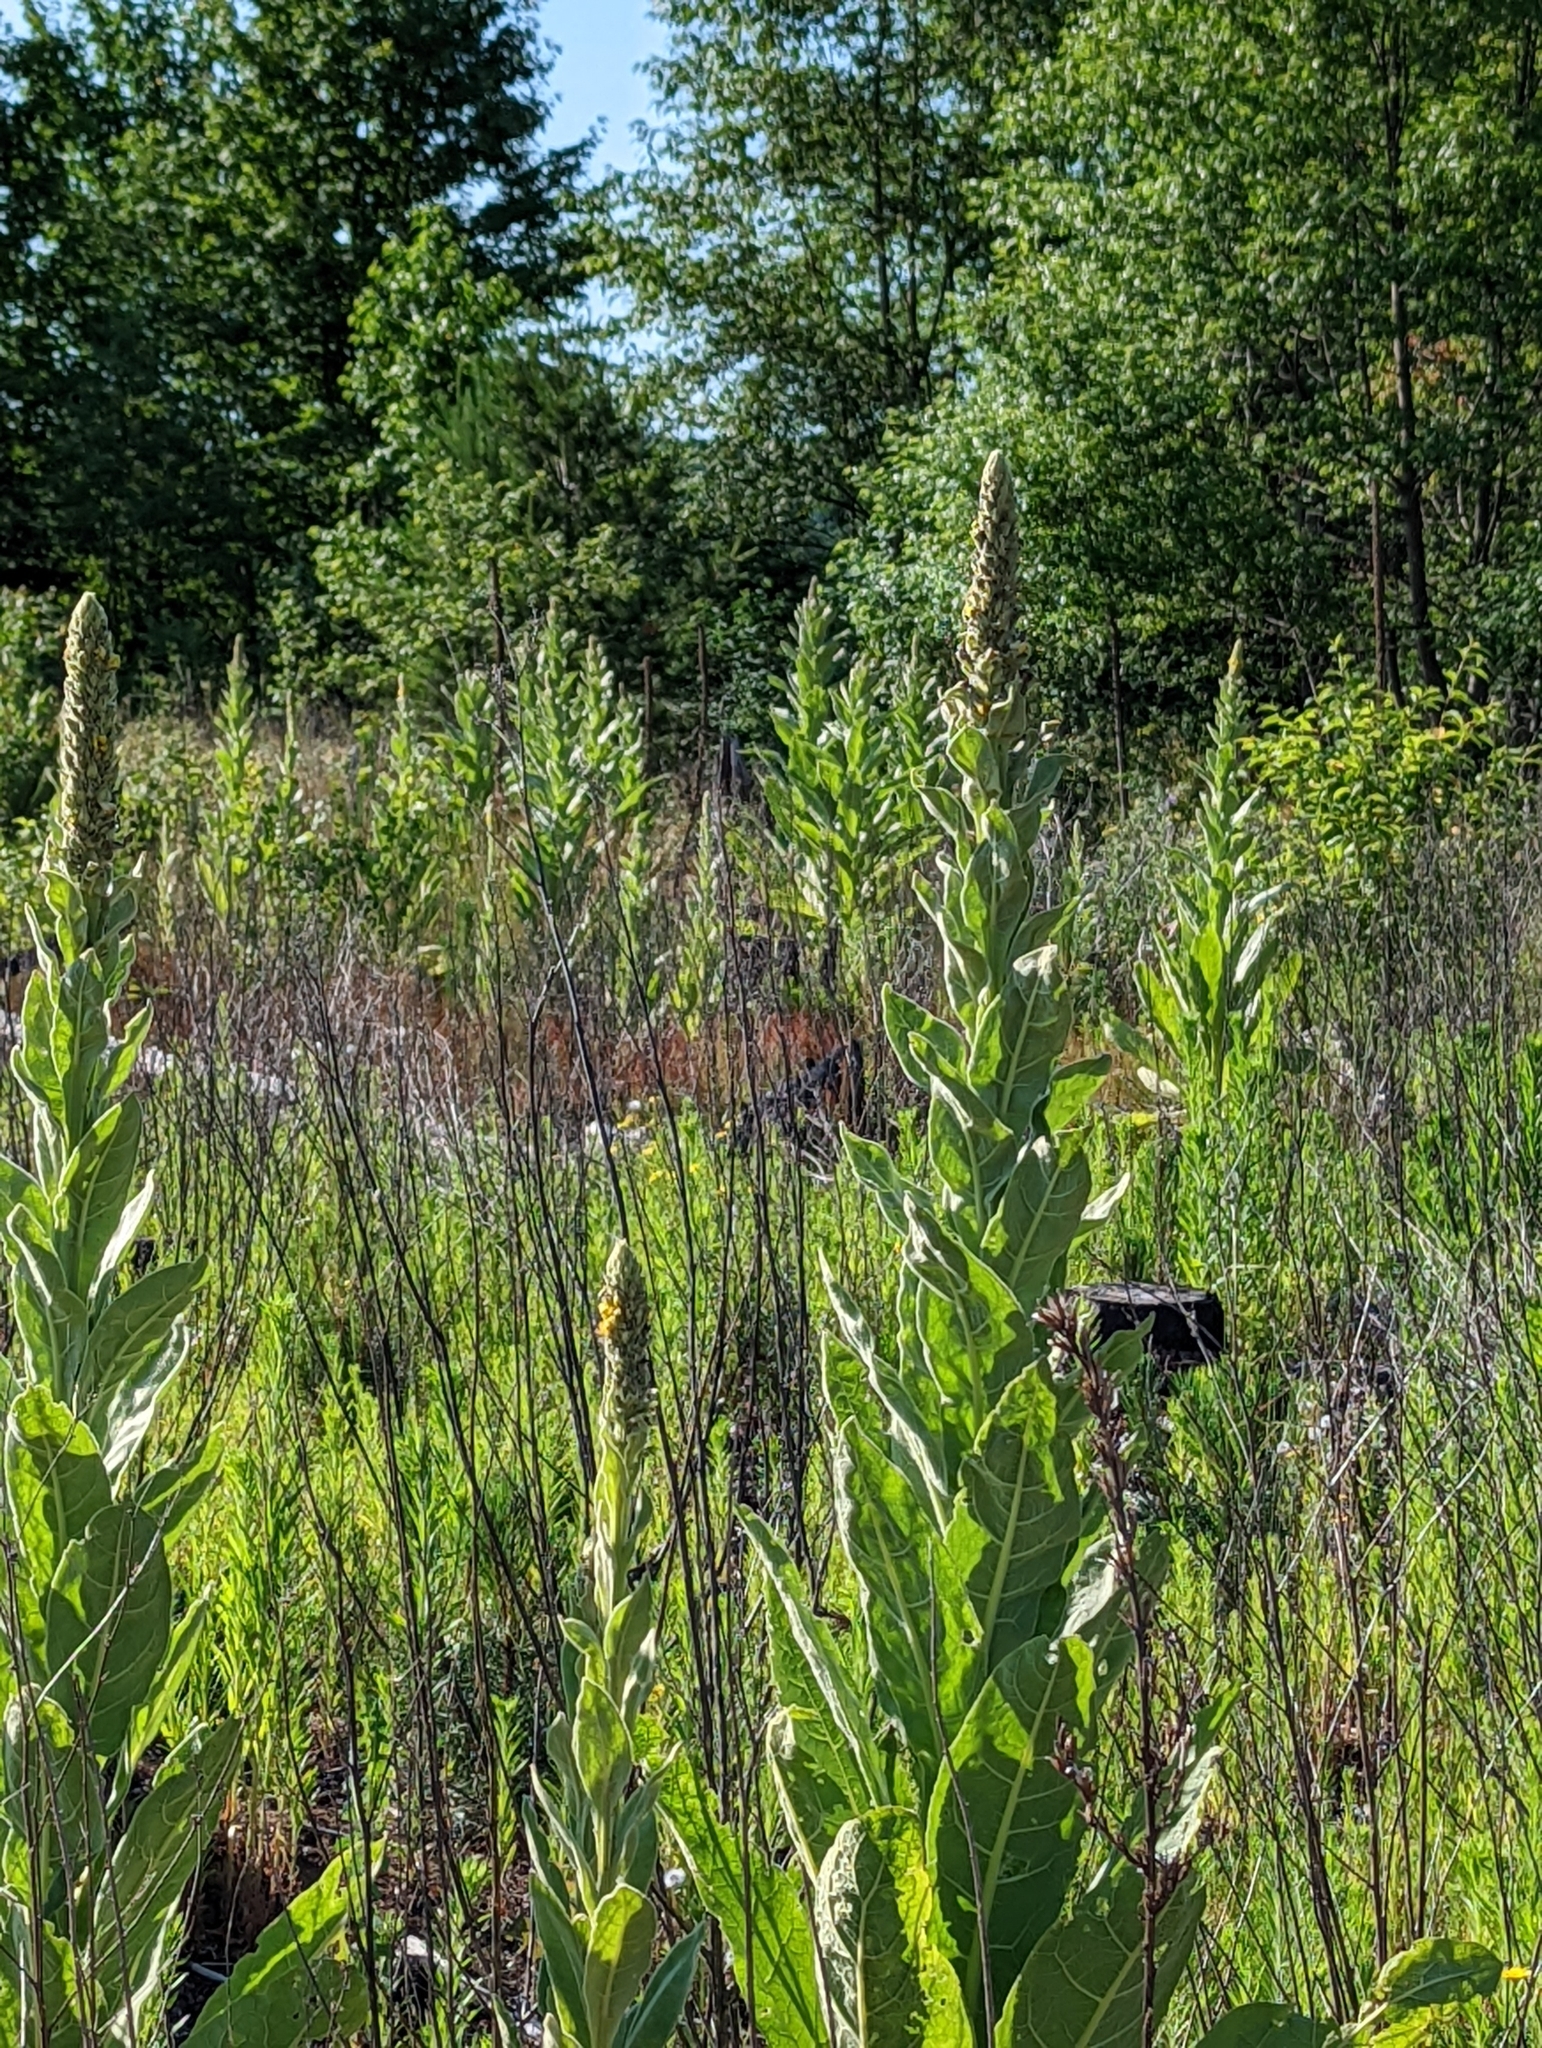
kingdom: Plantae
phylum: Tracheophyta
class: Magnoliopsida
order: Lamiales
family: Scrophulariaceae
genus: Verbascum
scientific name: Verbascum thapsus
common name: Common mullein
